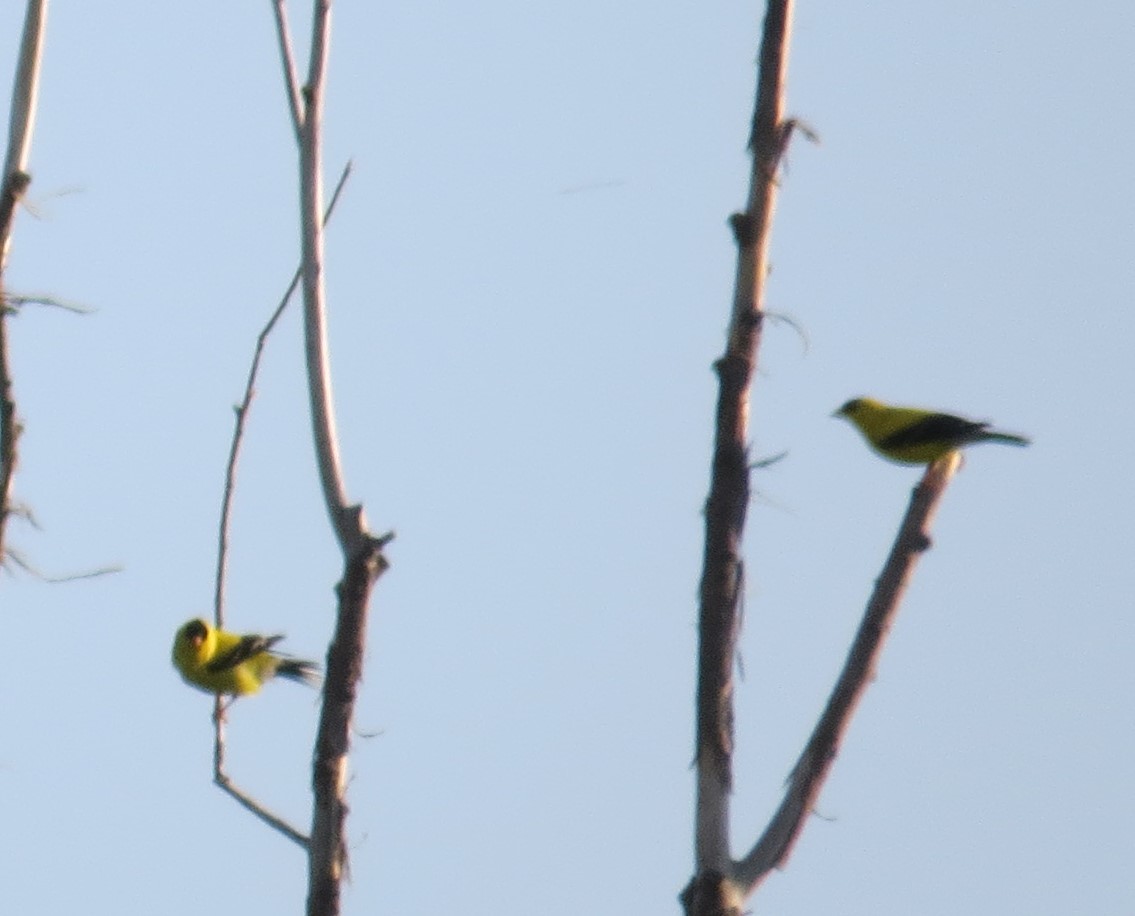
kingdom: Animalia
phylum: Chordata
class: Aves
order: Passeriformes
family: Fringillidae
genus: Spinus
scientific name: Spinus tristis
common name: American goldfinch
